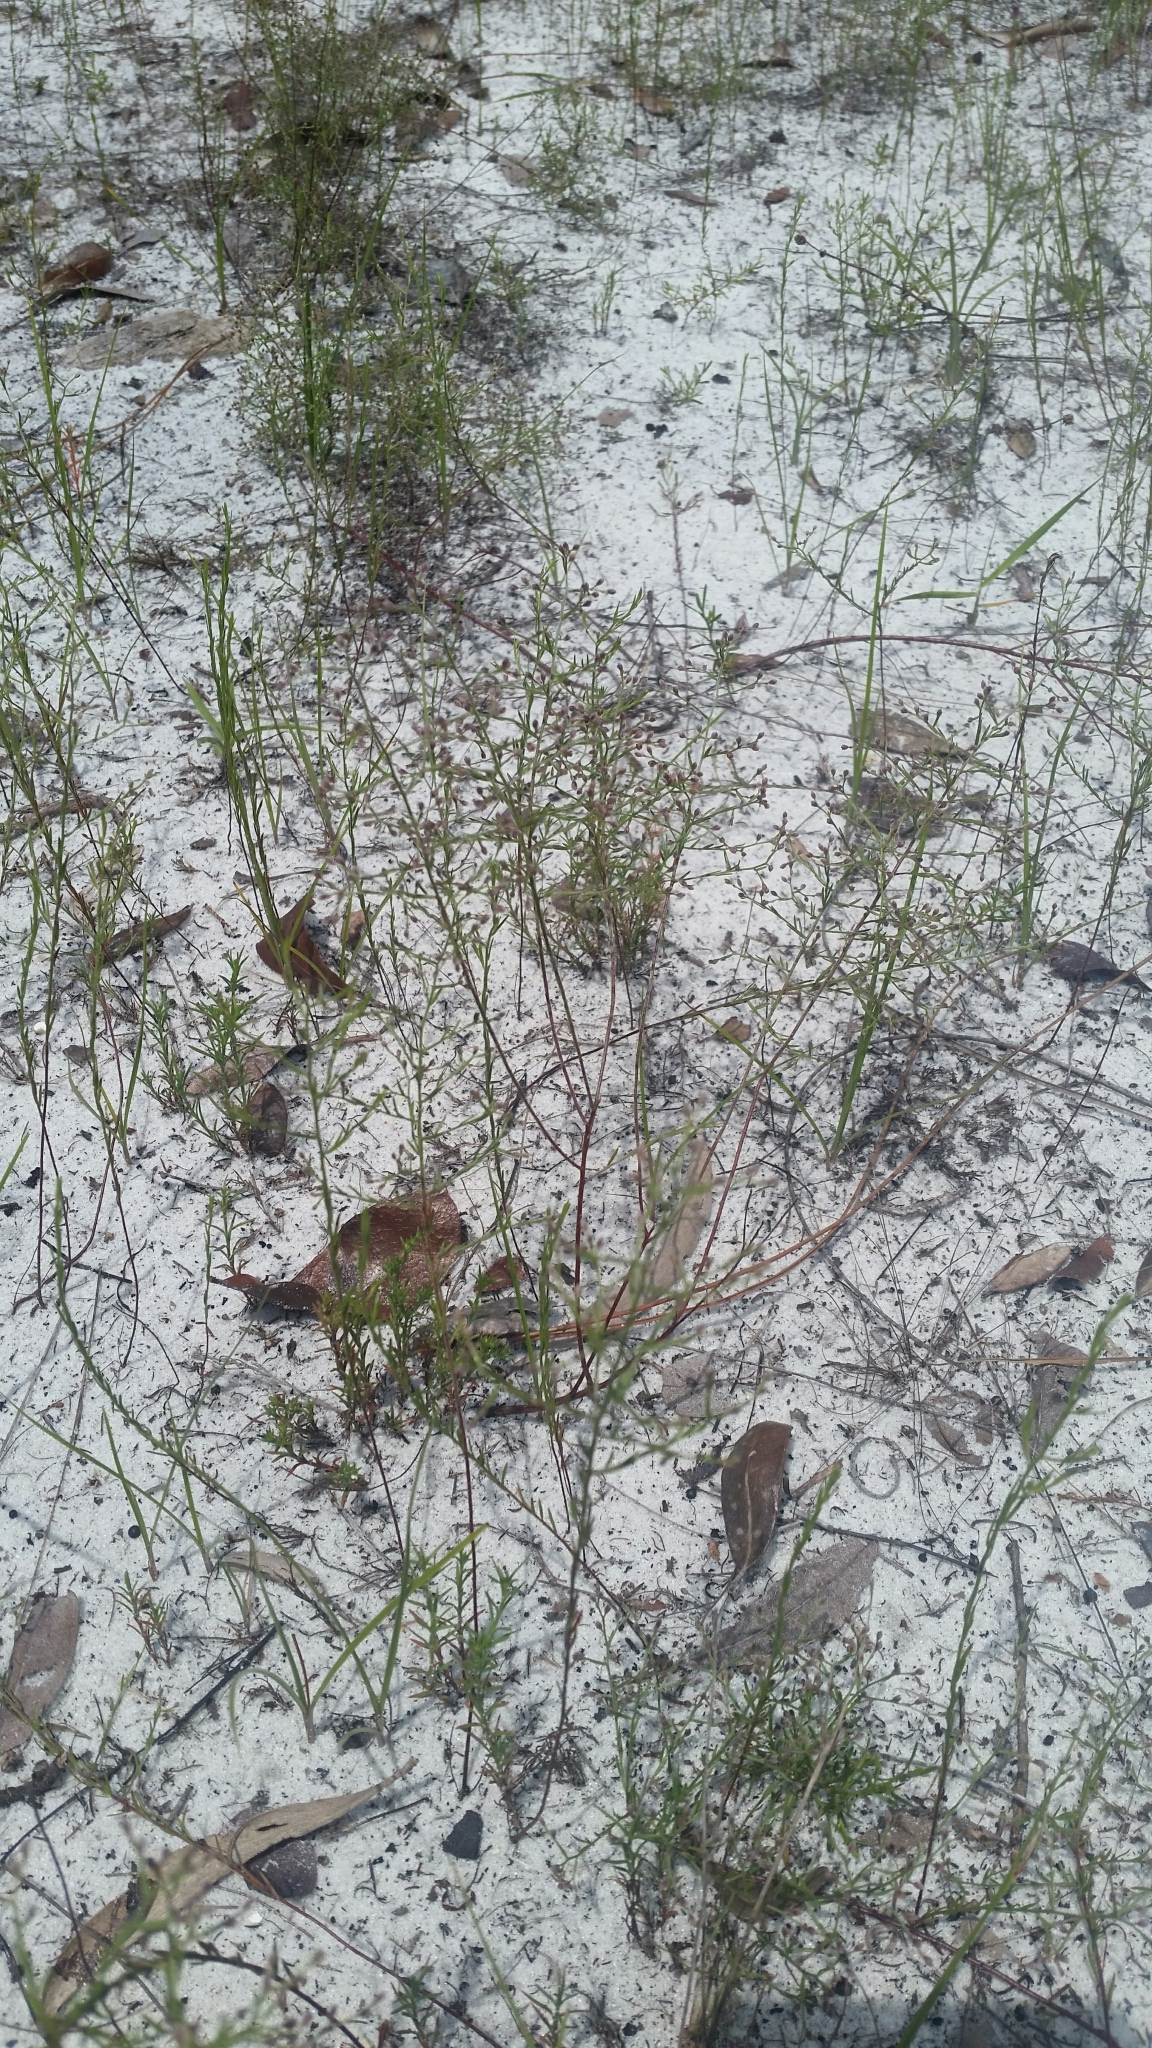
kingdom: Plantae
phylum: Tracheophyta
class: Magnoliopsida
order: Malvales
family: Cistaceae
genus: Lechea
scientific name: Lechea torreyi
